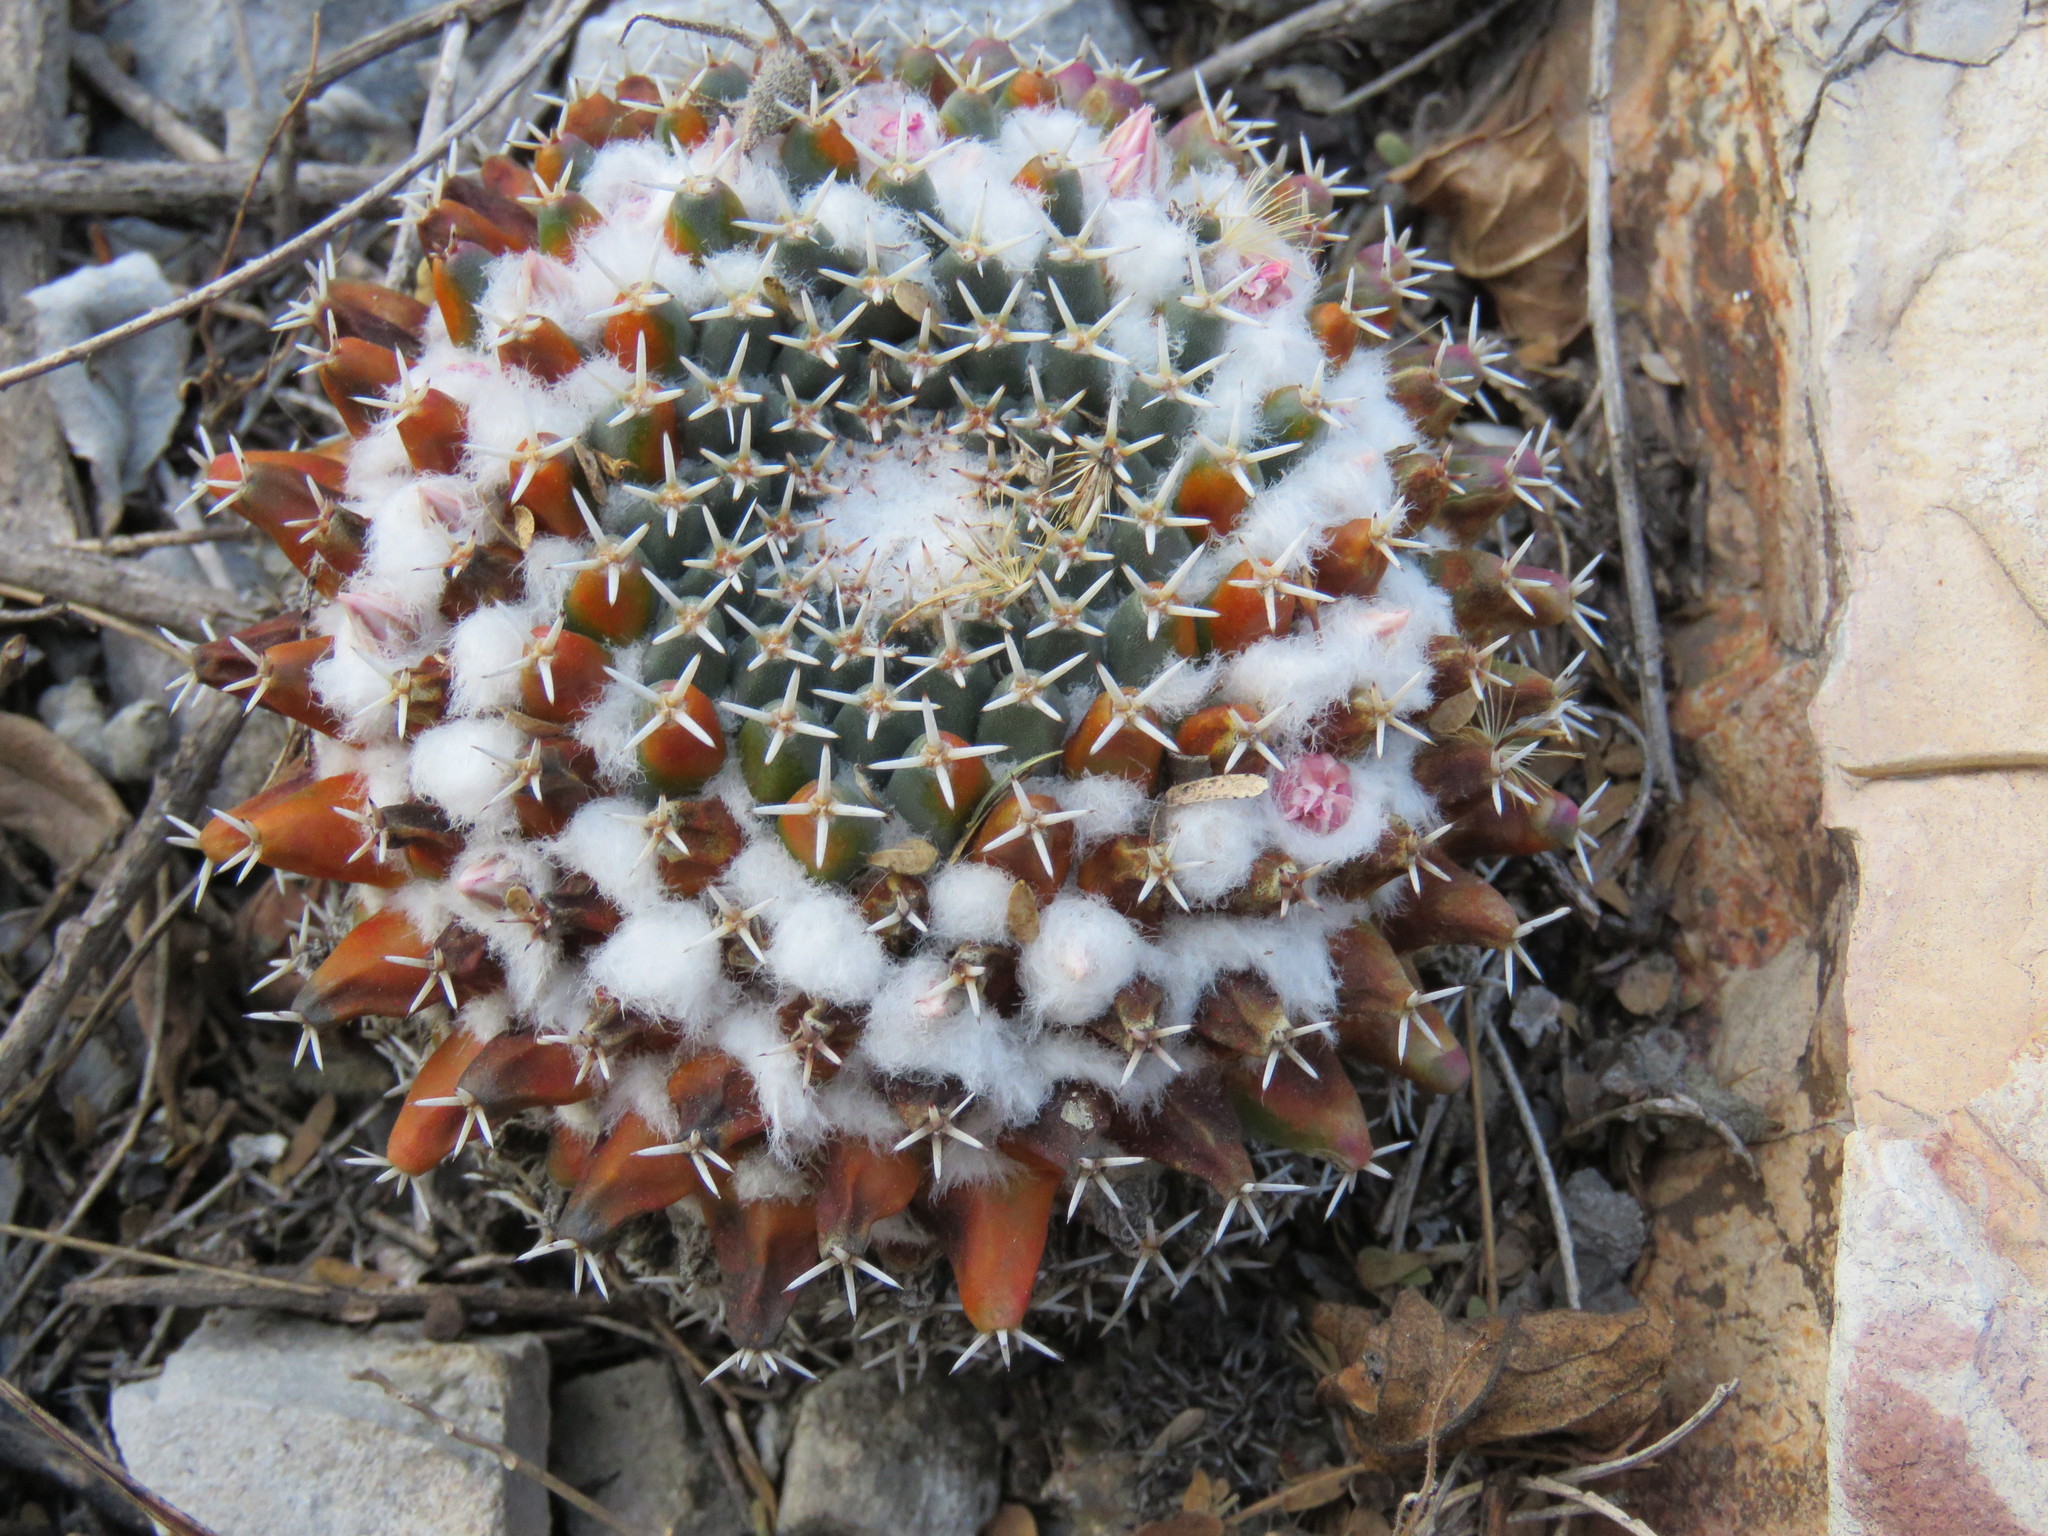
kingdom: Plantae
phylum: Tracheophyta
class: Magnoliopsida
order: Caryophyllales
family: Cactaceae
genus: Mammillaria
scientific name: Mammillaria
